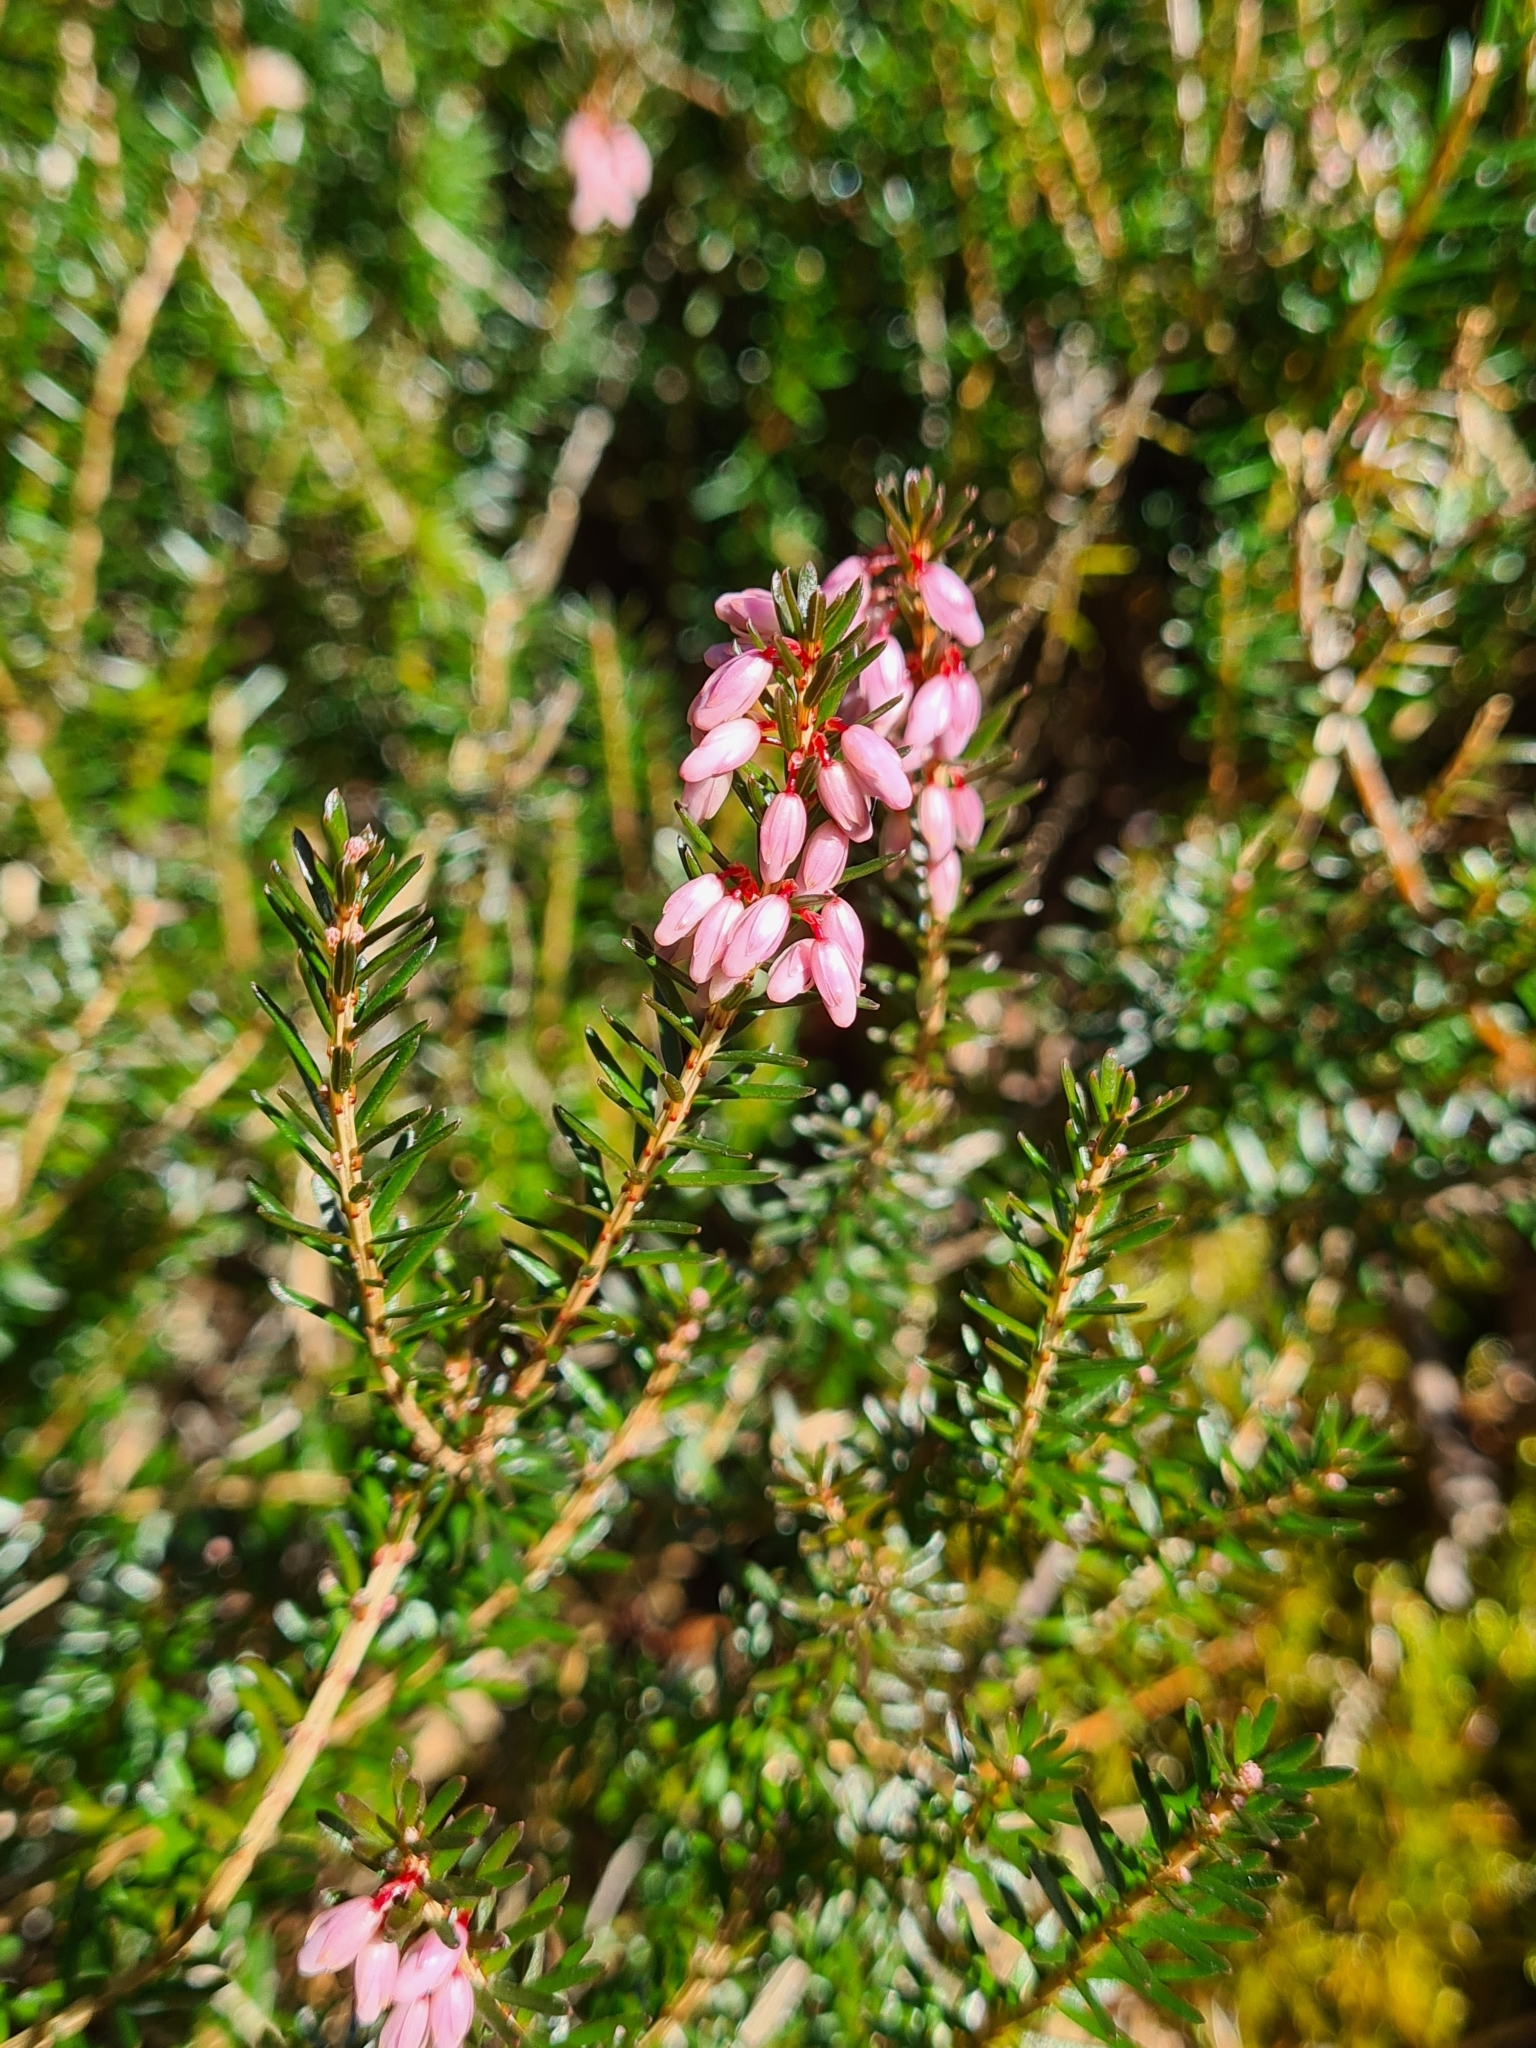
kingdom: Plantae
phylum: Tracheophyta
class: Magnoliopsida
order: Ericales
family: Ericaceae
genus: Erica
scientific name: Erica carnea
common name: Winter heath
